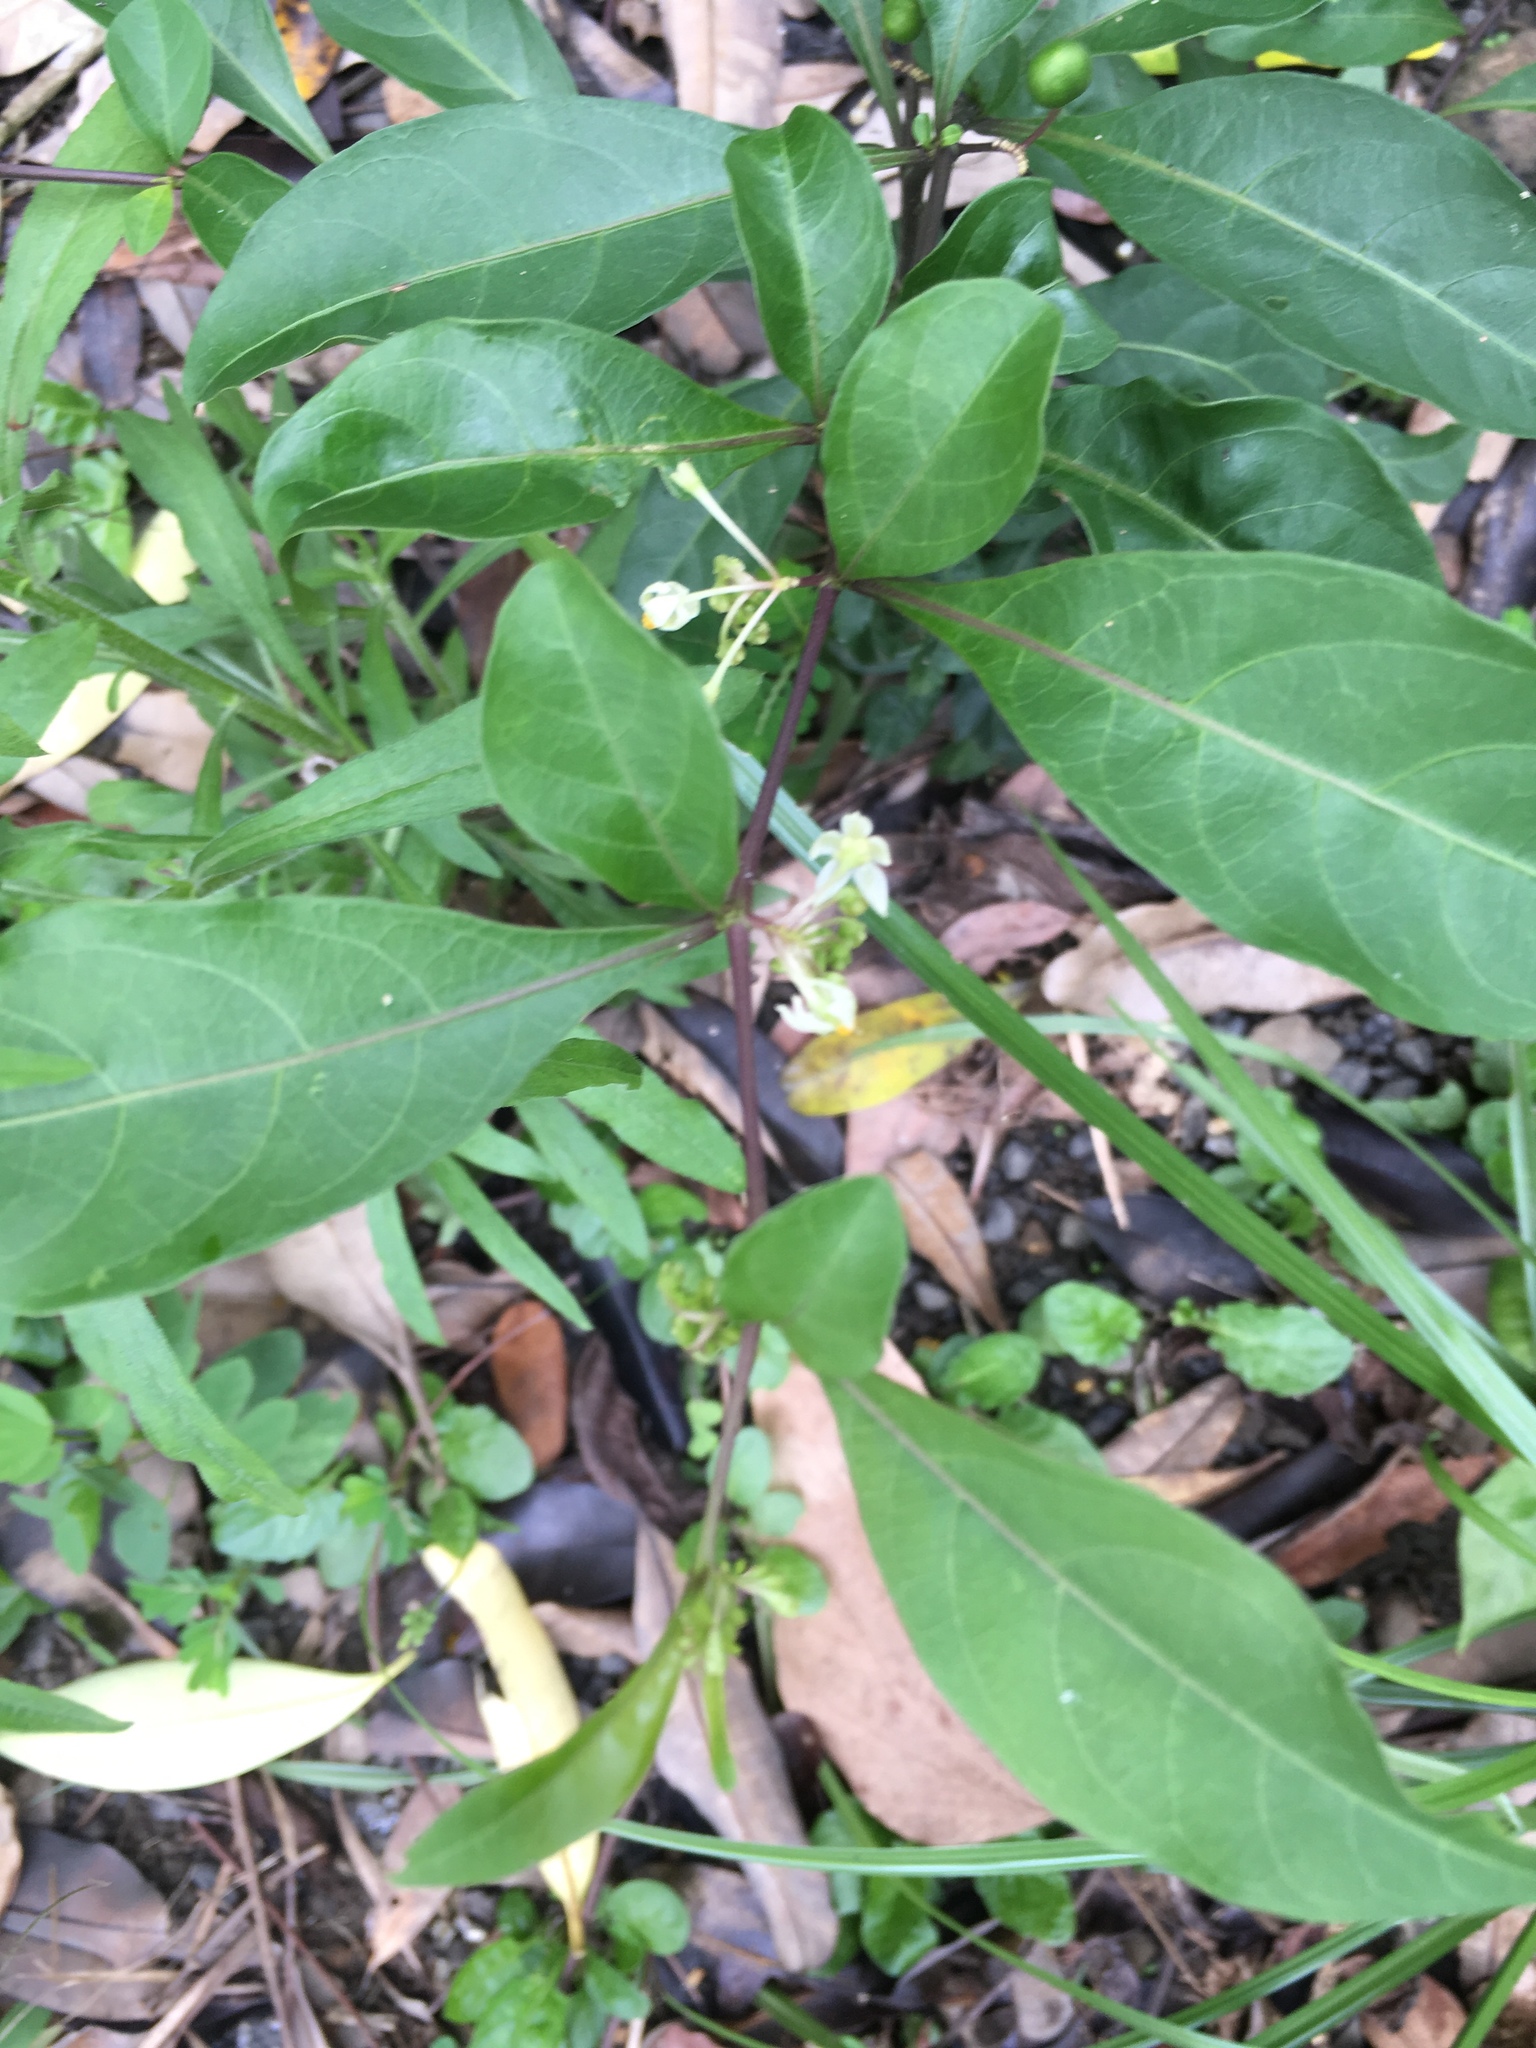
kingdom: Plantae
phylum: Tracheophyta
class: Magnoliopsida
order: Solanales
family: Solanaceae
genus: Solanum
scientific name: Solanum diphyllum
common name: Twoleaf nightshade
